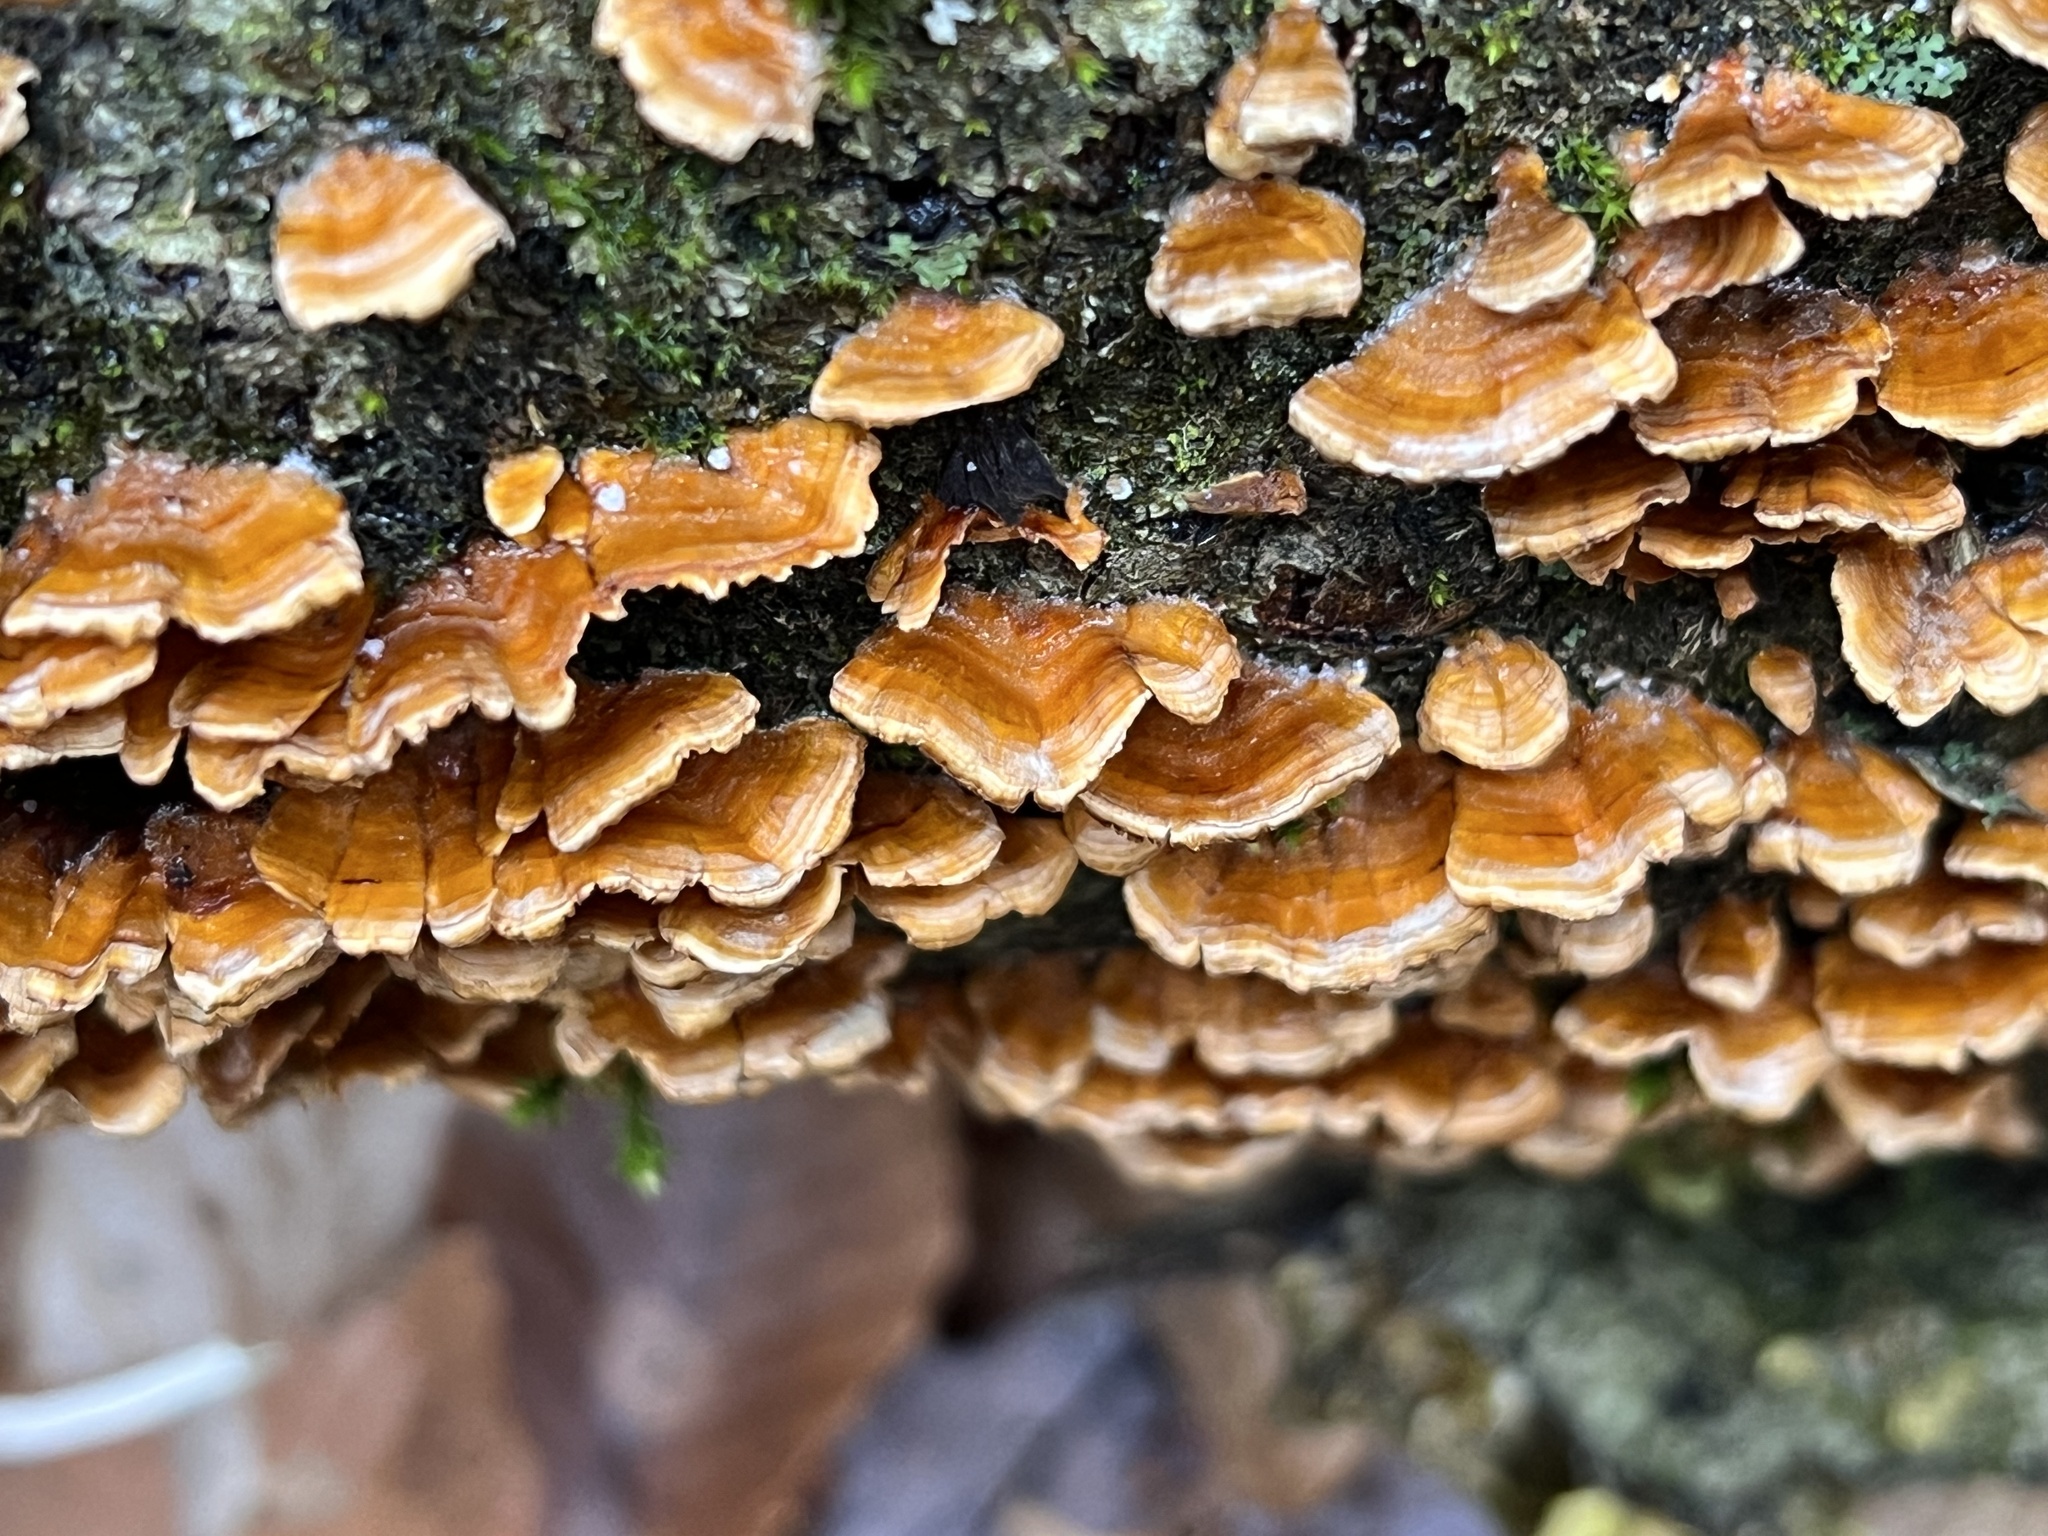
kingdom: Fungi
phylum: Basidiomycota
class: Agaricomycetes
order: Russulales
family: Stereaceae
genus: Stereum
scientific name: Stereum complicatum
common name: Crowded parchment
